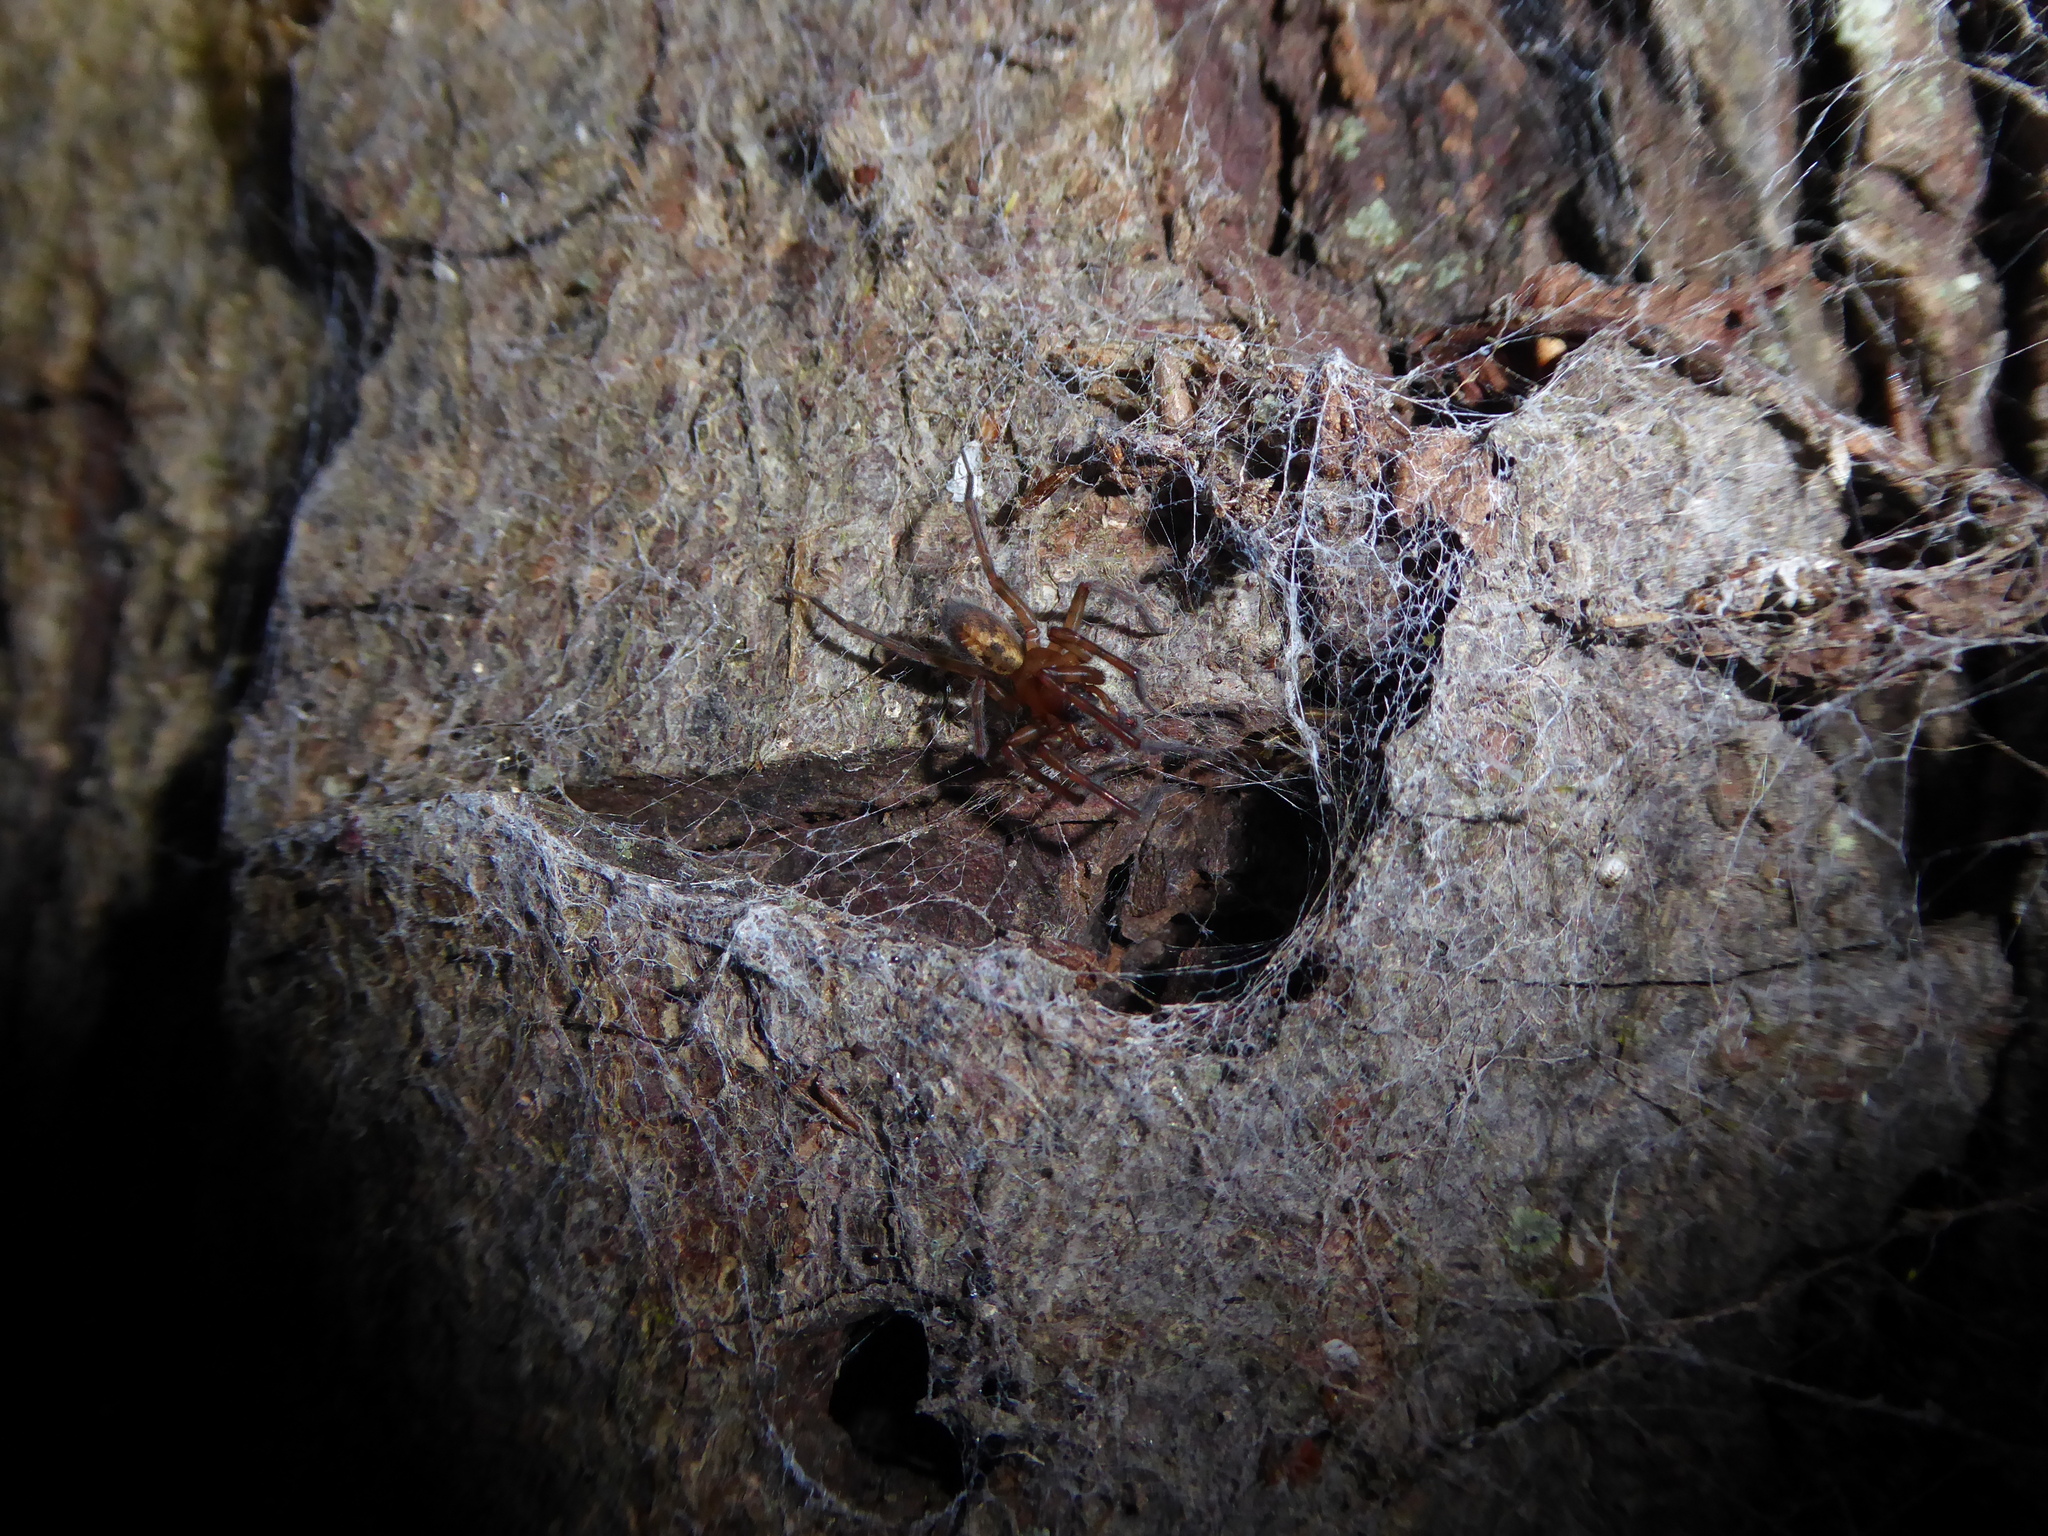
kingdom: Animalia
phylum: Arthropoda
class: Arachnida
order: Araneae
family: Amaurobiidae
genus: Amaurobius
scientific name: Amaurobius
